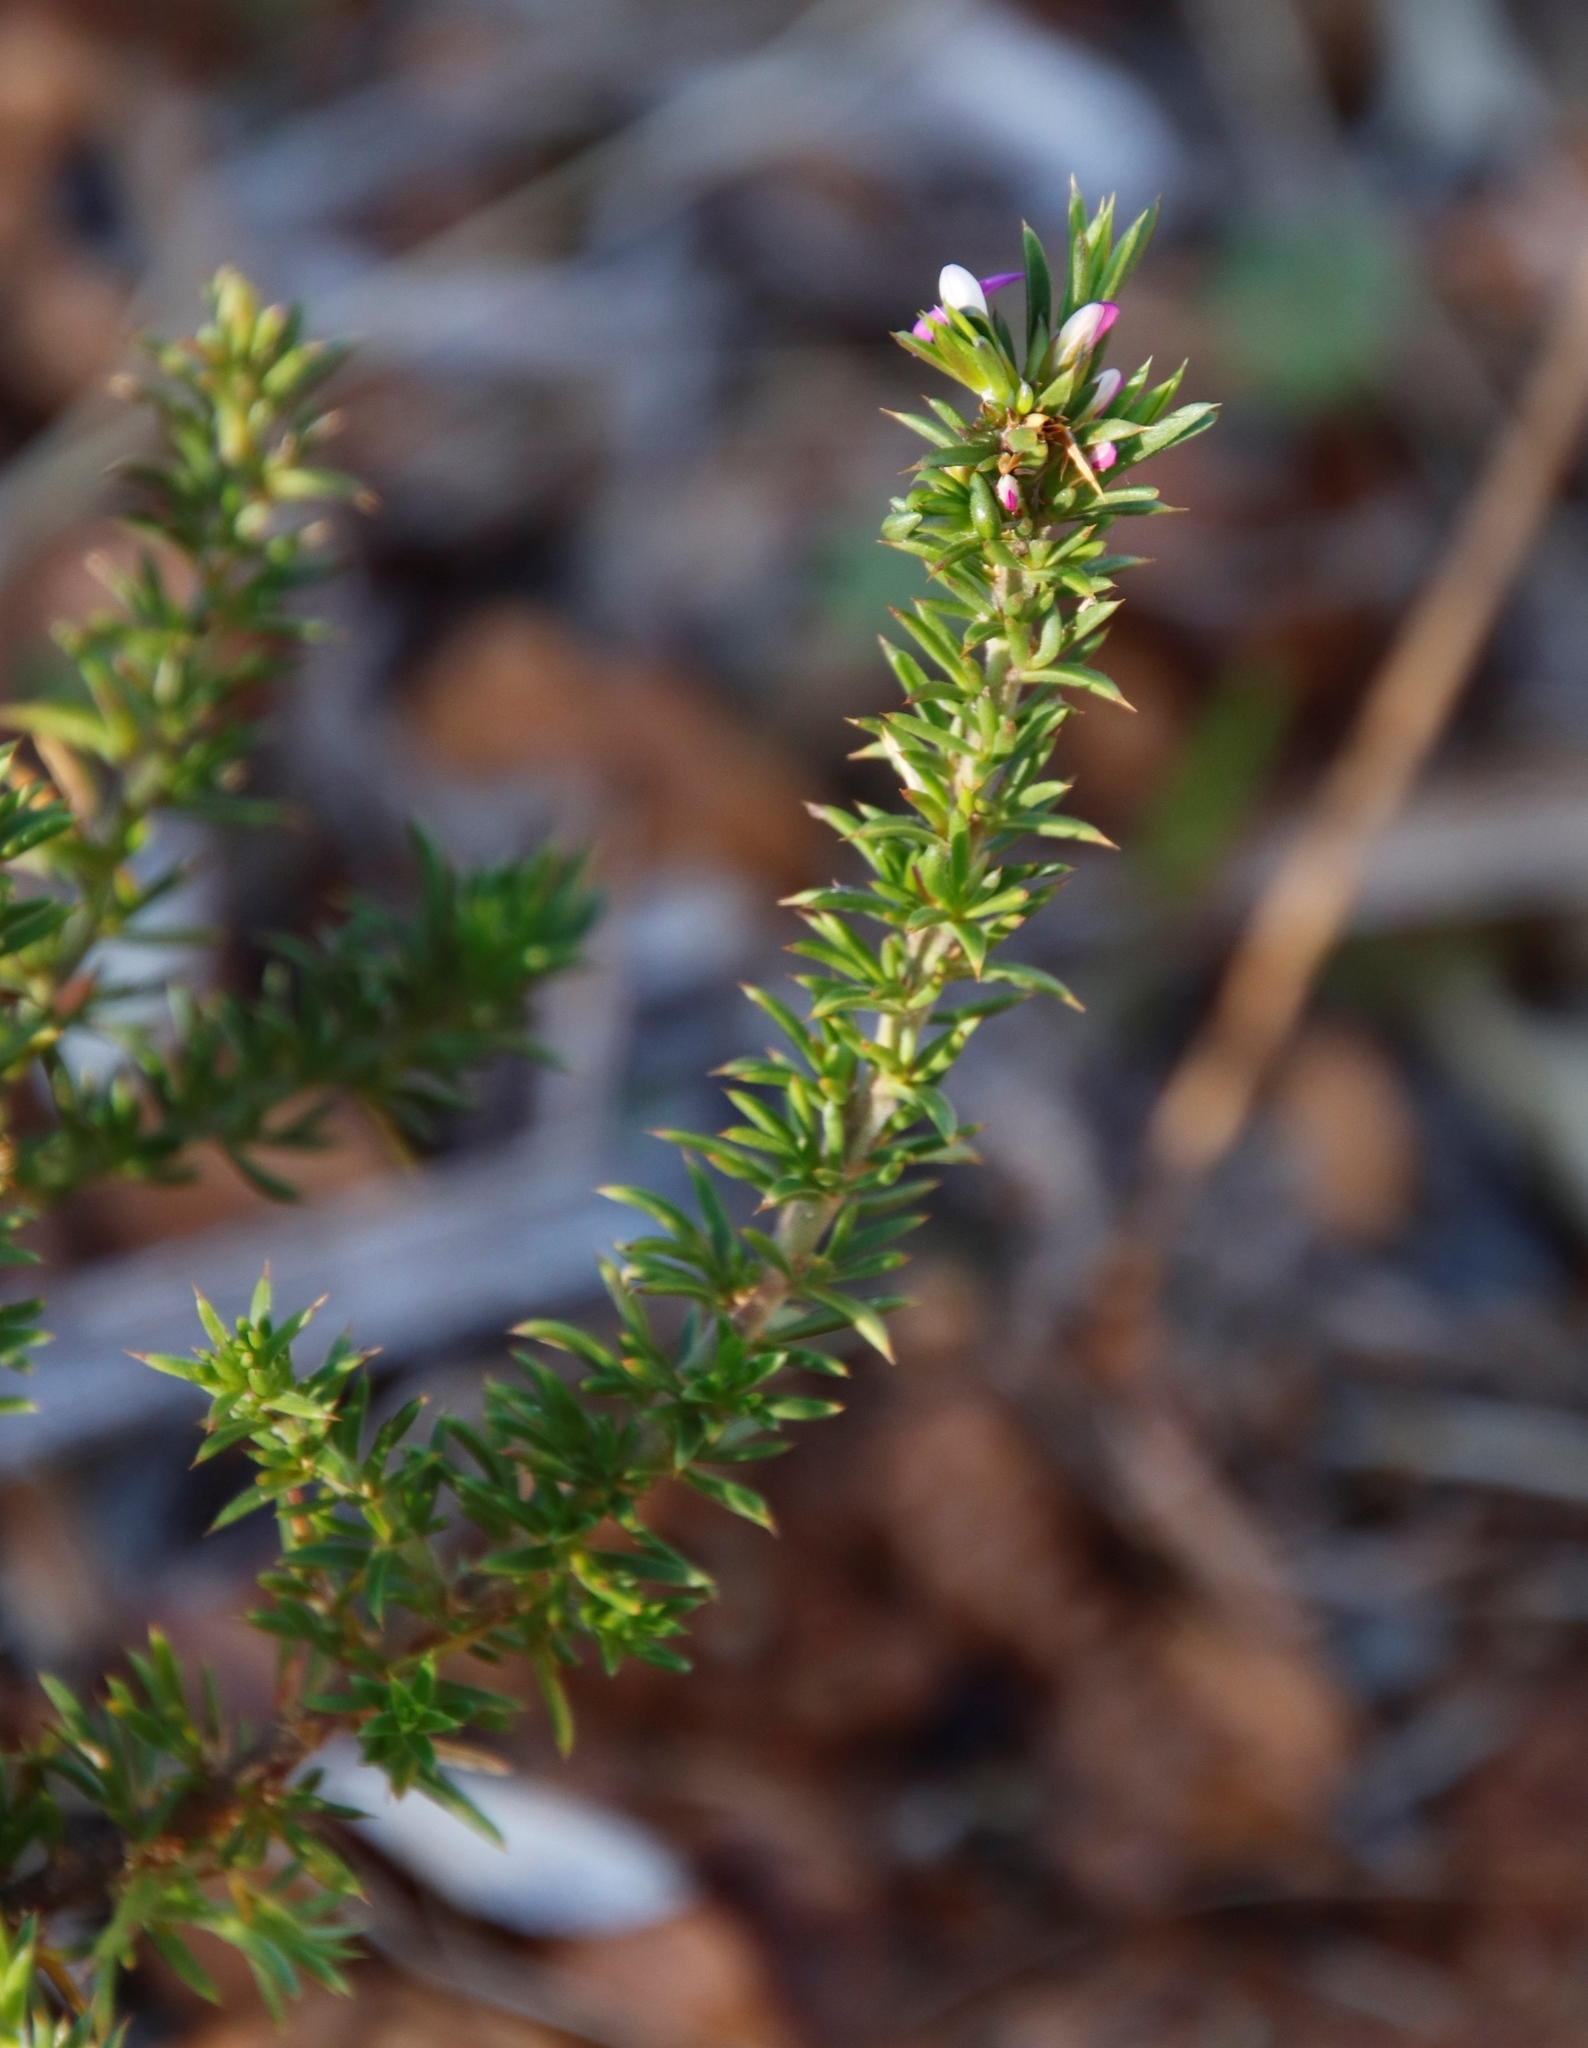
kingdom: Plantae
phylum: Tracheophyta
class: Magnoliopsida
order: Fabales
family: Polygalaceae
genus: Muraltia
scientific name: Muraltia heisteria
